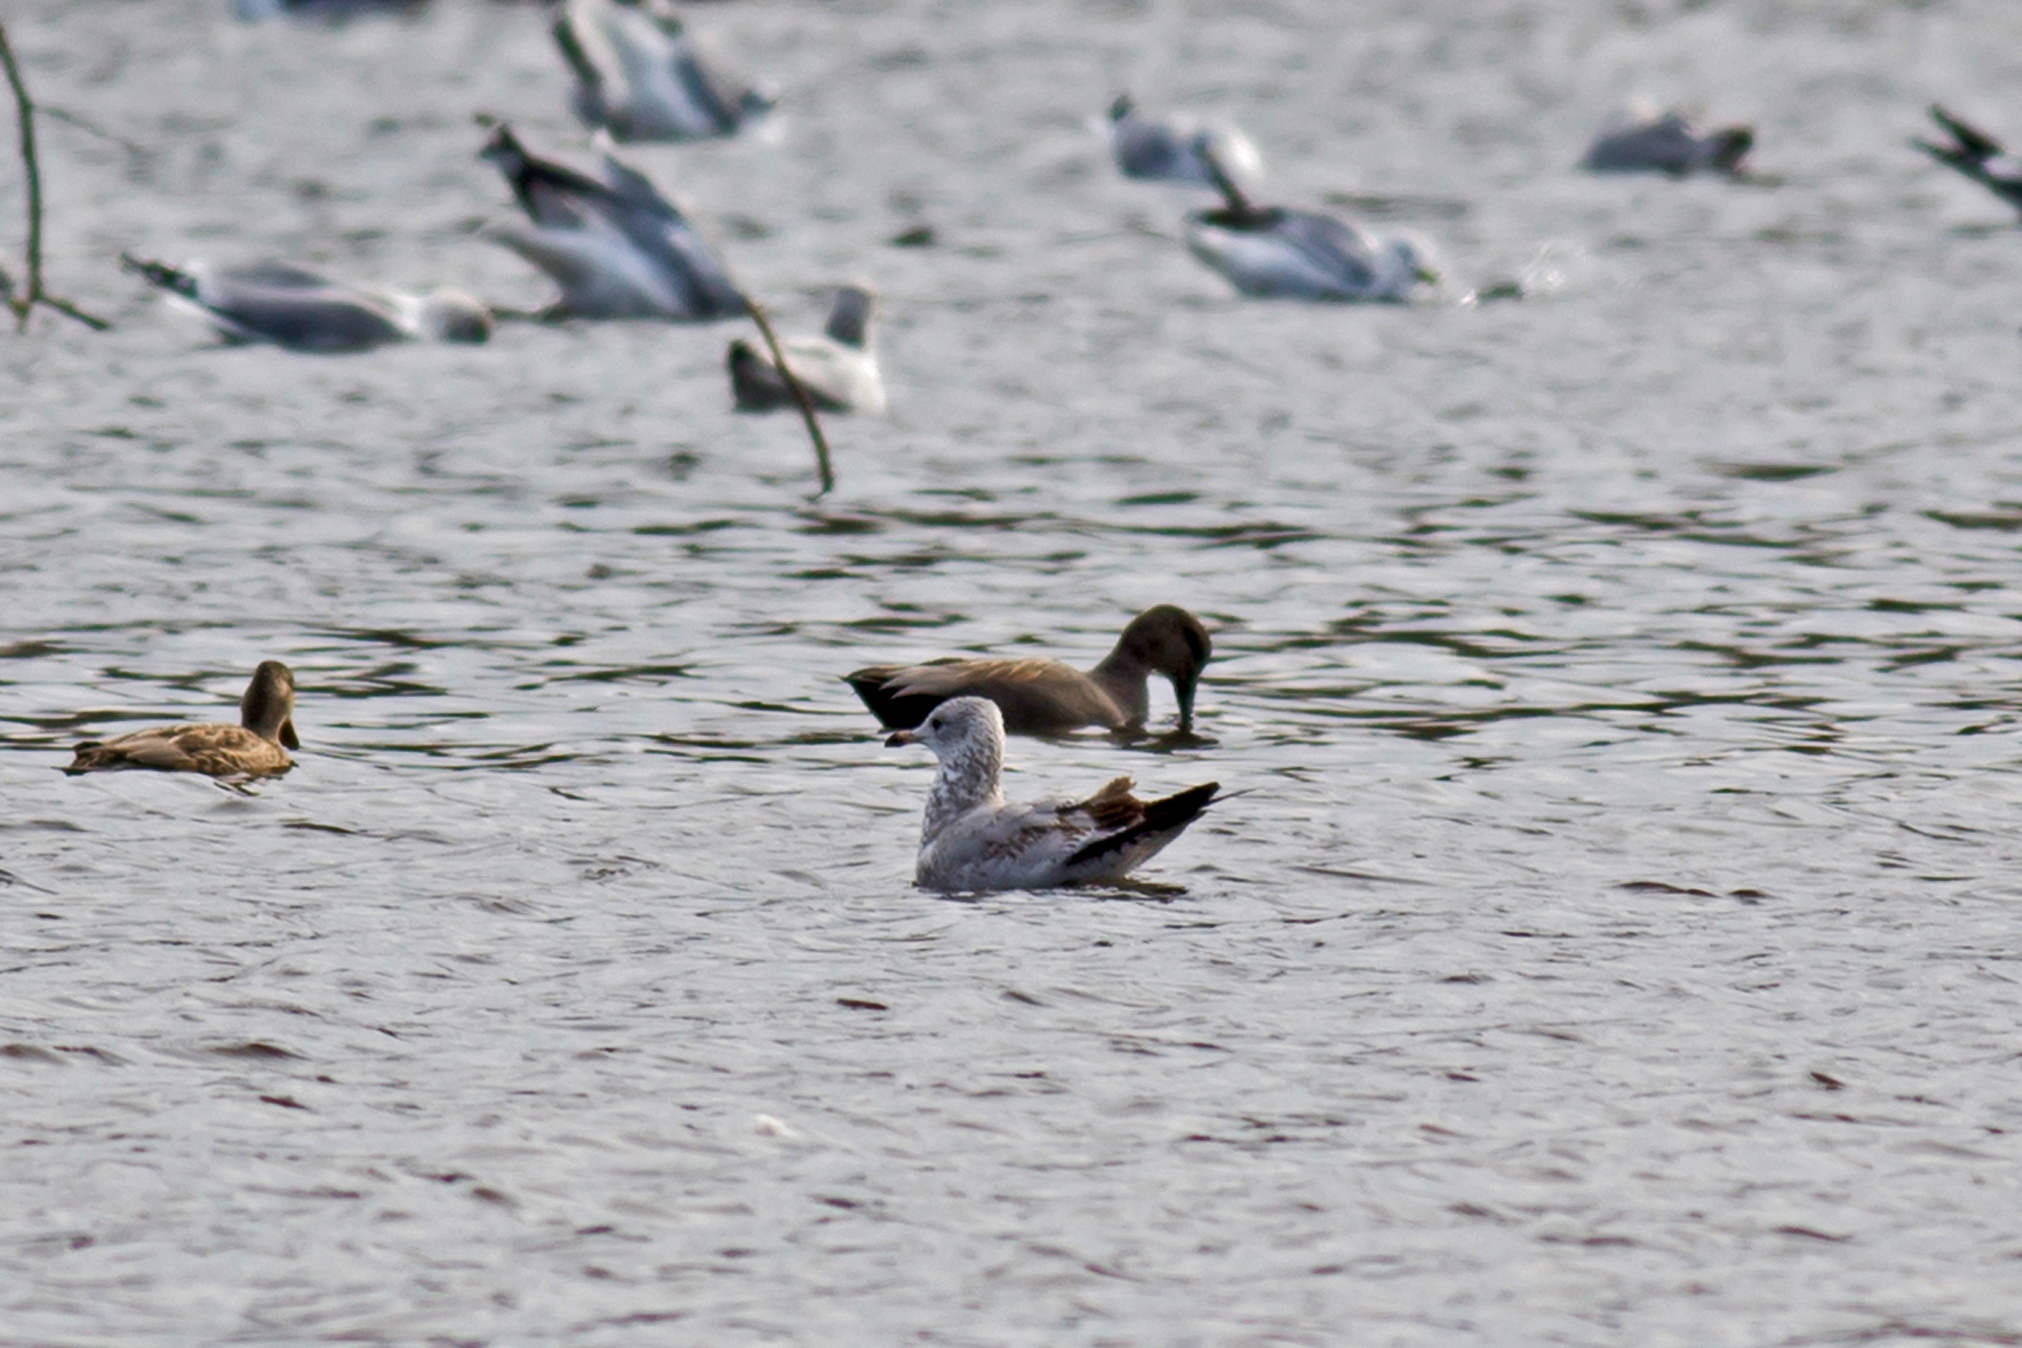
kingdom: Animalia
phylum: Chordata
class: Aves
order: Charadriiformes
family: Laridae
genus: Larus
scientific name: Larus delawarensis
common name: Ring-billed gull
